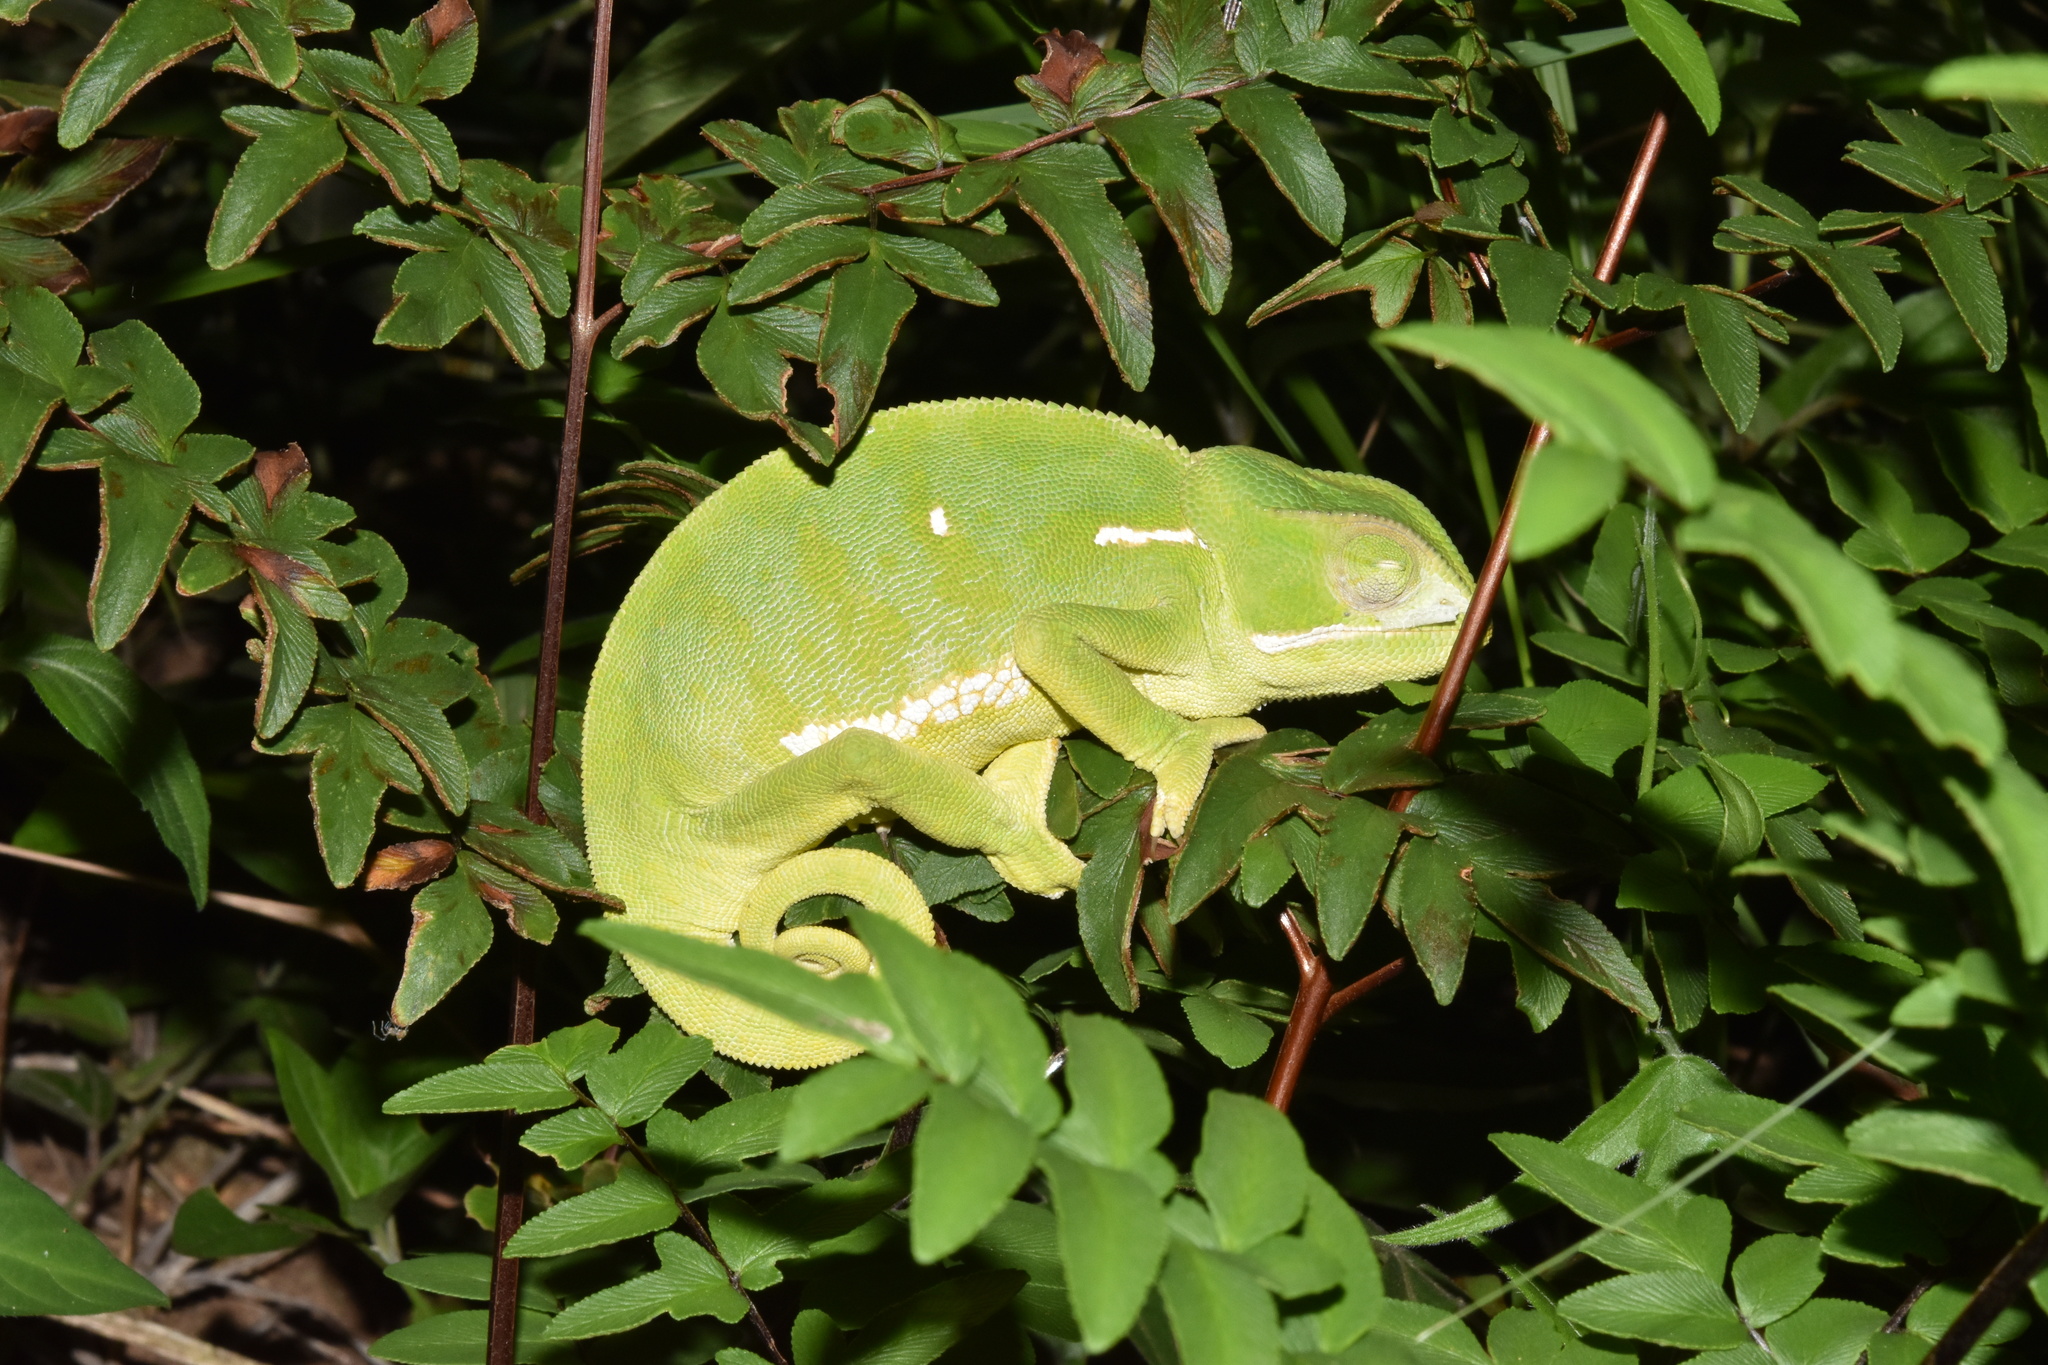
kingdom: Animalia
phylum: Chordata
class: Squamata
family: Chamaeleonidae
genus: Chamaeleo
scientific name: Chamaeleo dilepis
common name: Flapneck chameleon
